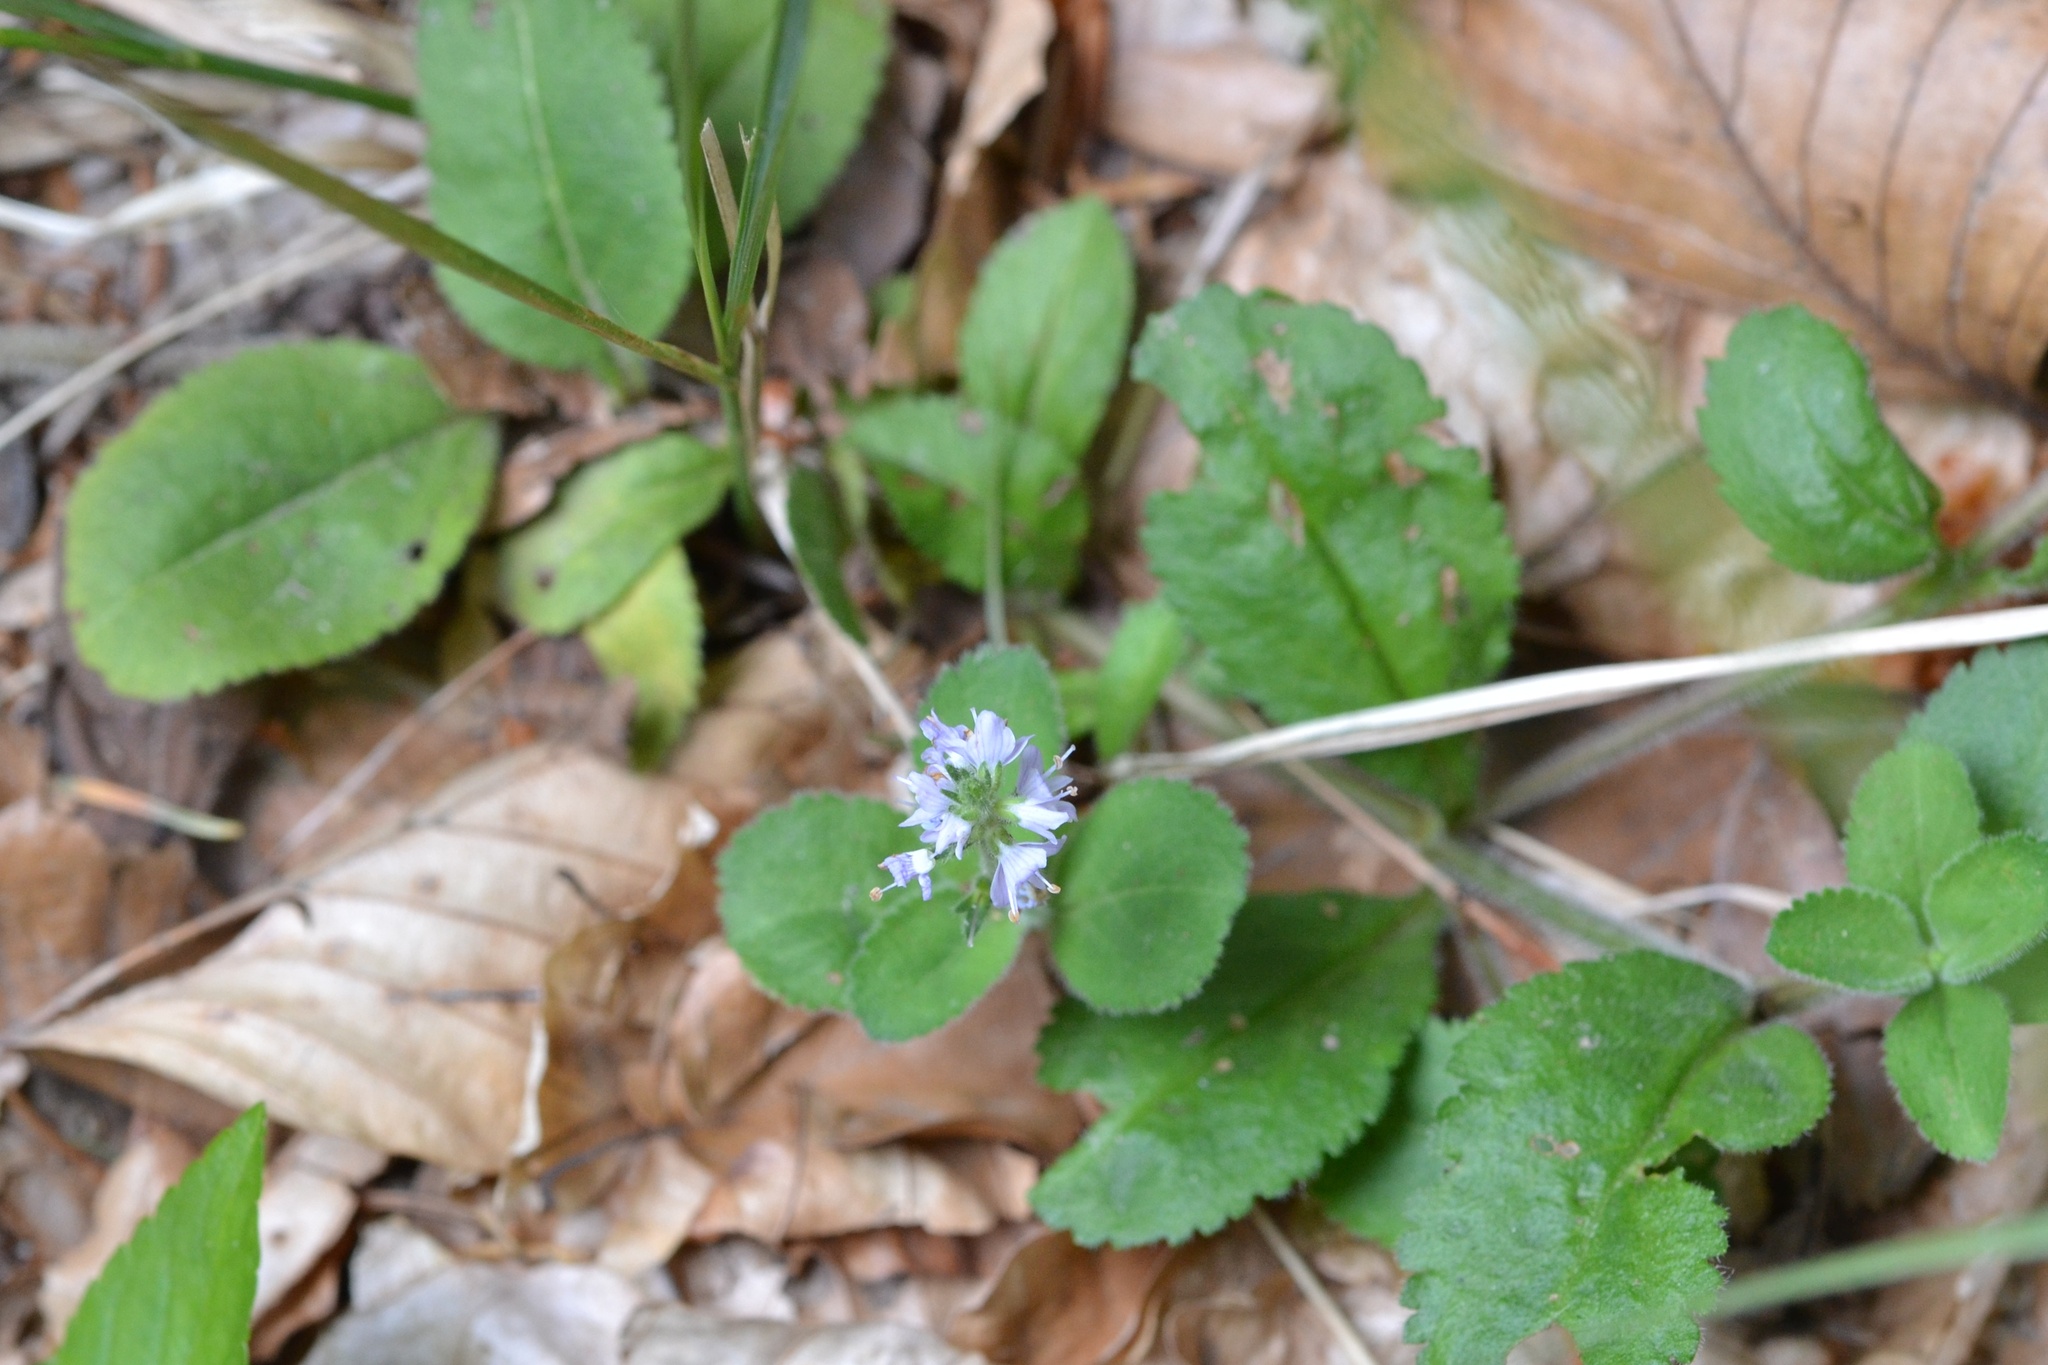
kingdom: Plantae
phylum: Tracheophyta
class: Magnoliopsida
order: Lamiales
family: Plantaginaceae
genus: Veronica
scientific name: Veronica officinalis
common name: Common speedwell
